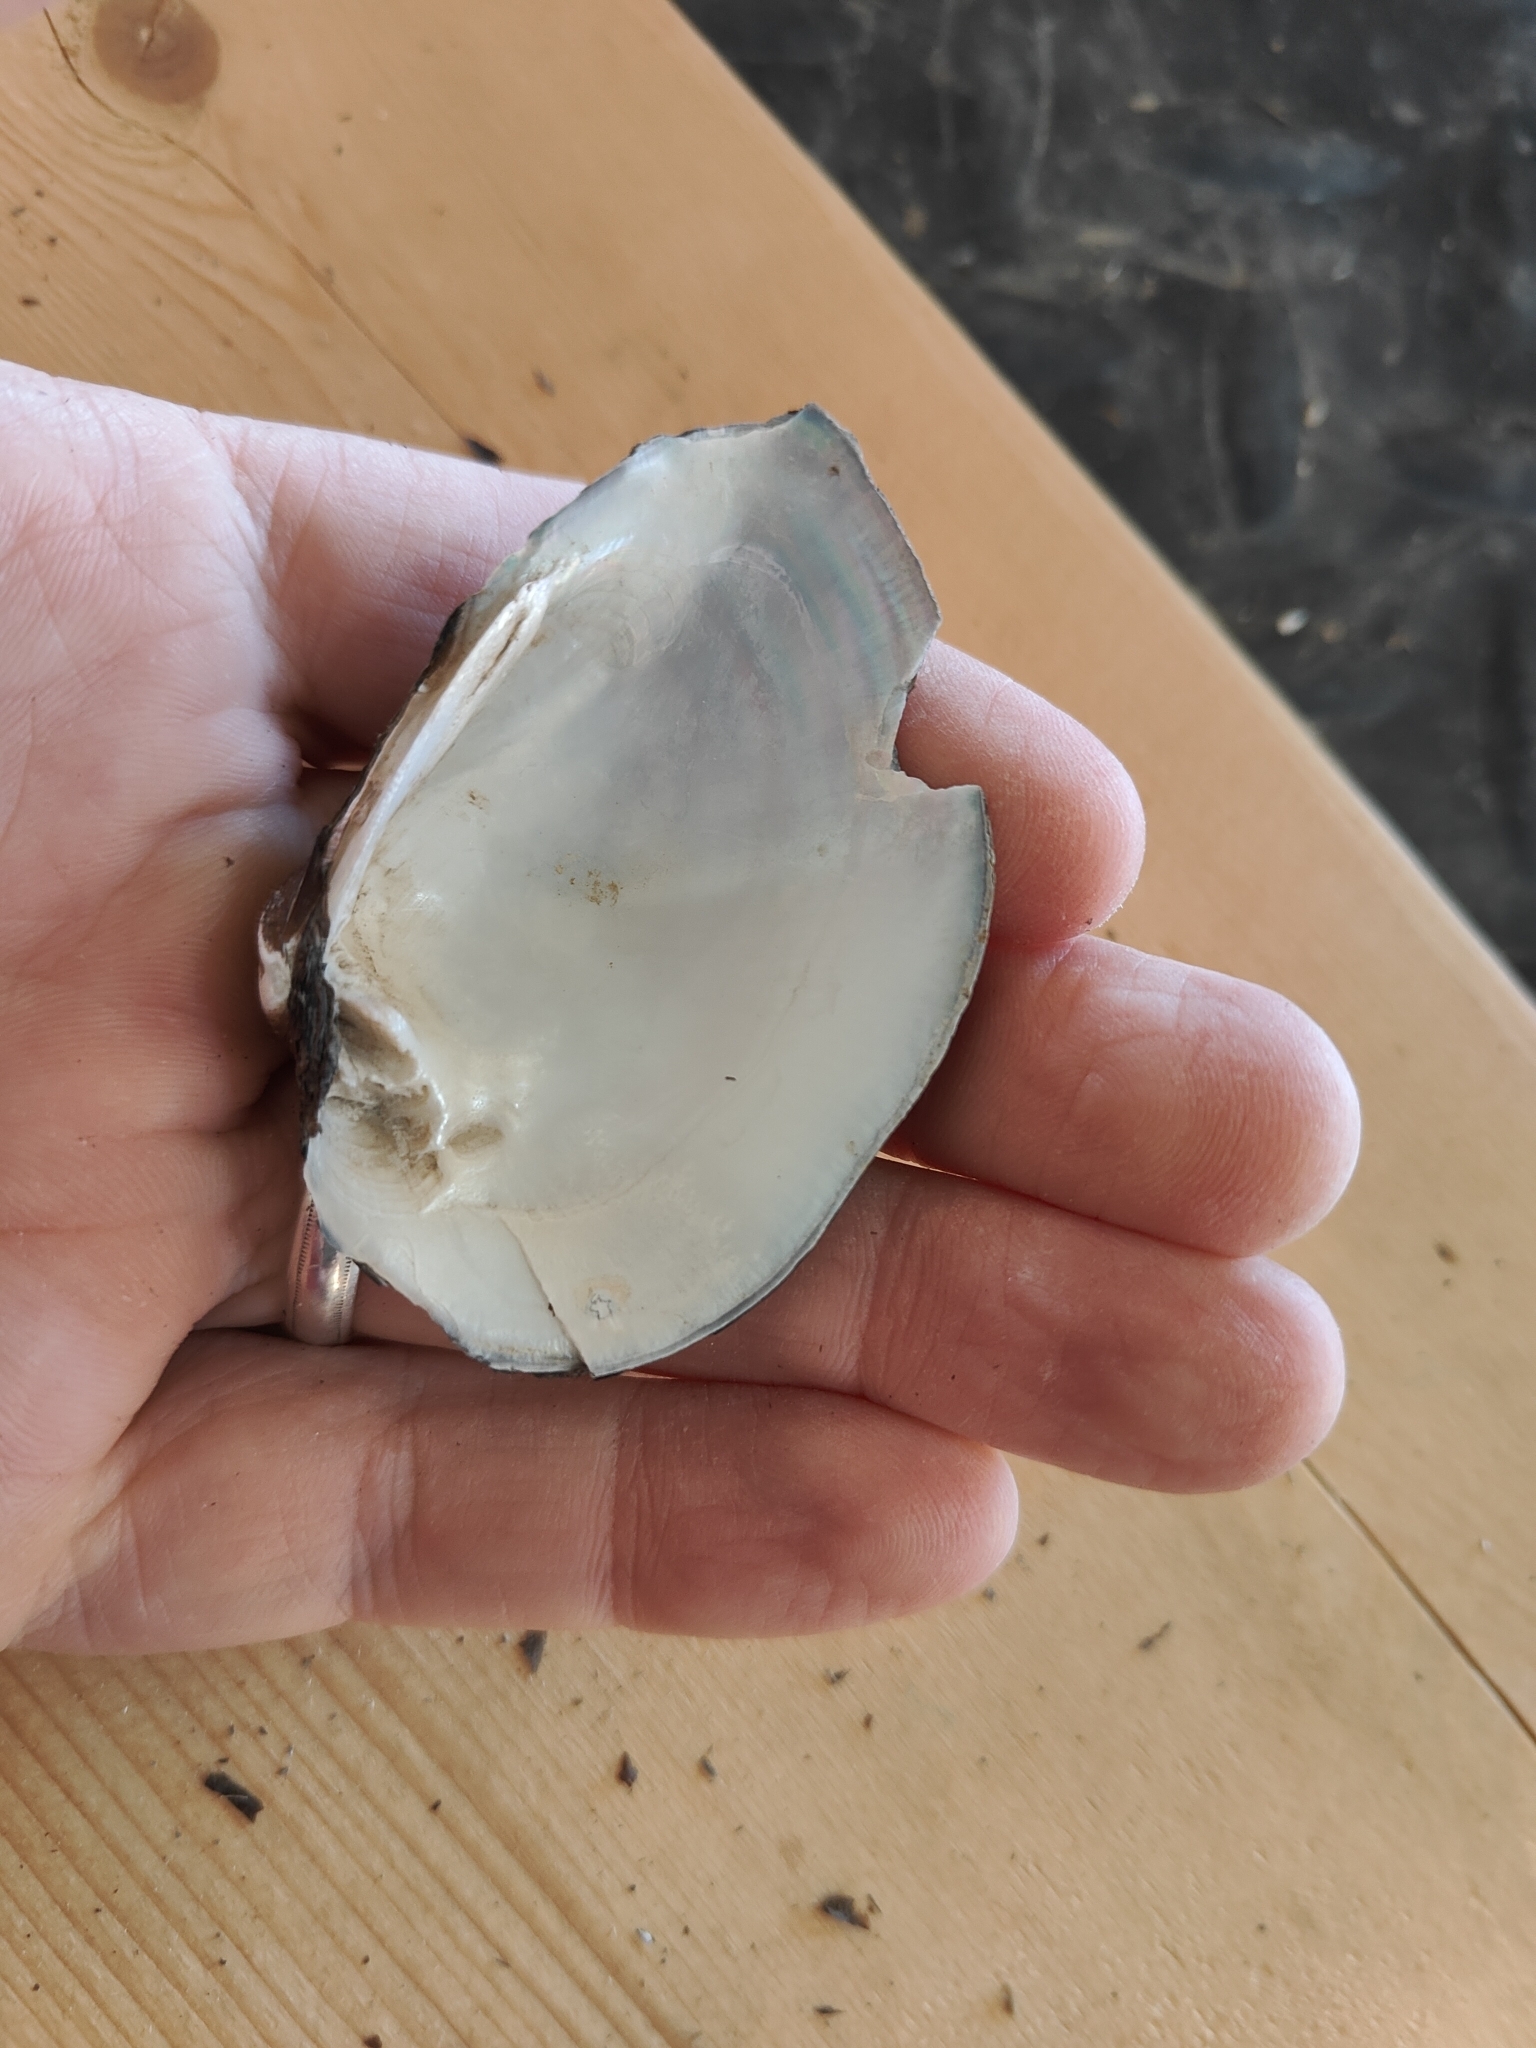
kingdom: Animalia
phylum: Mollusca
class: Bivalvia
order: Unionida
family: Unionidae
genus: Truncilla
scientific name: Truncilla truncata
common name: Deertoe
